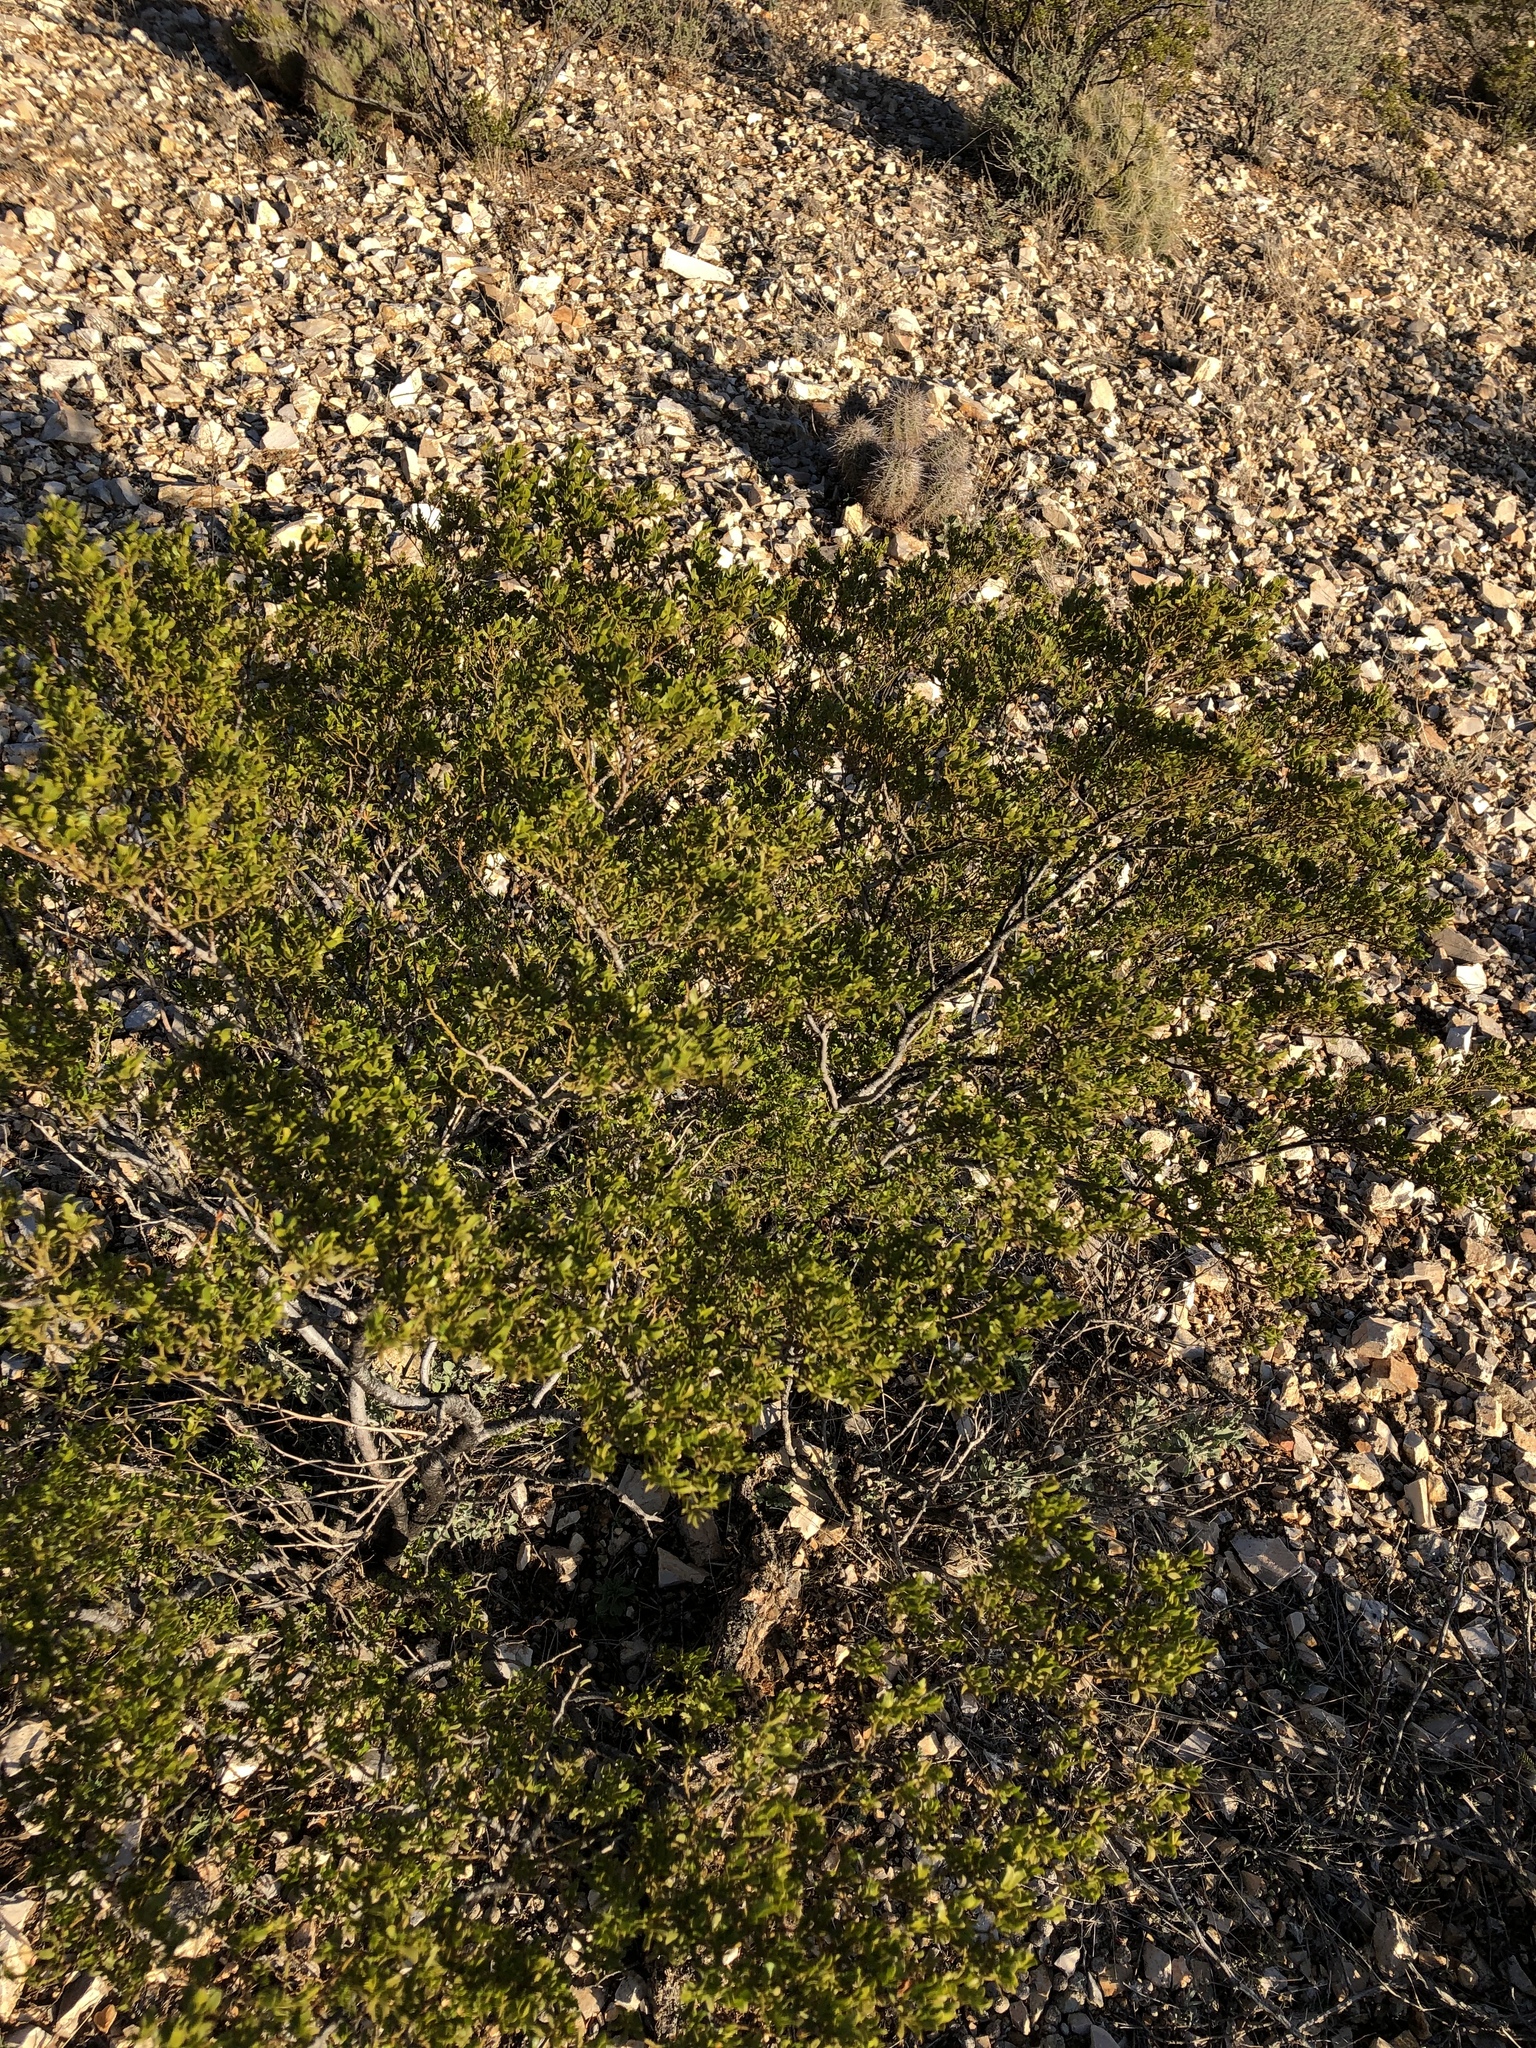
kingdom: Plantae
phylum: Tracheophyta
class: Magnoliopsida
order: Zygophyllales
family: Zygophyllaceae
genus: Larrea
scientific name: Larrea tridentata
